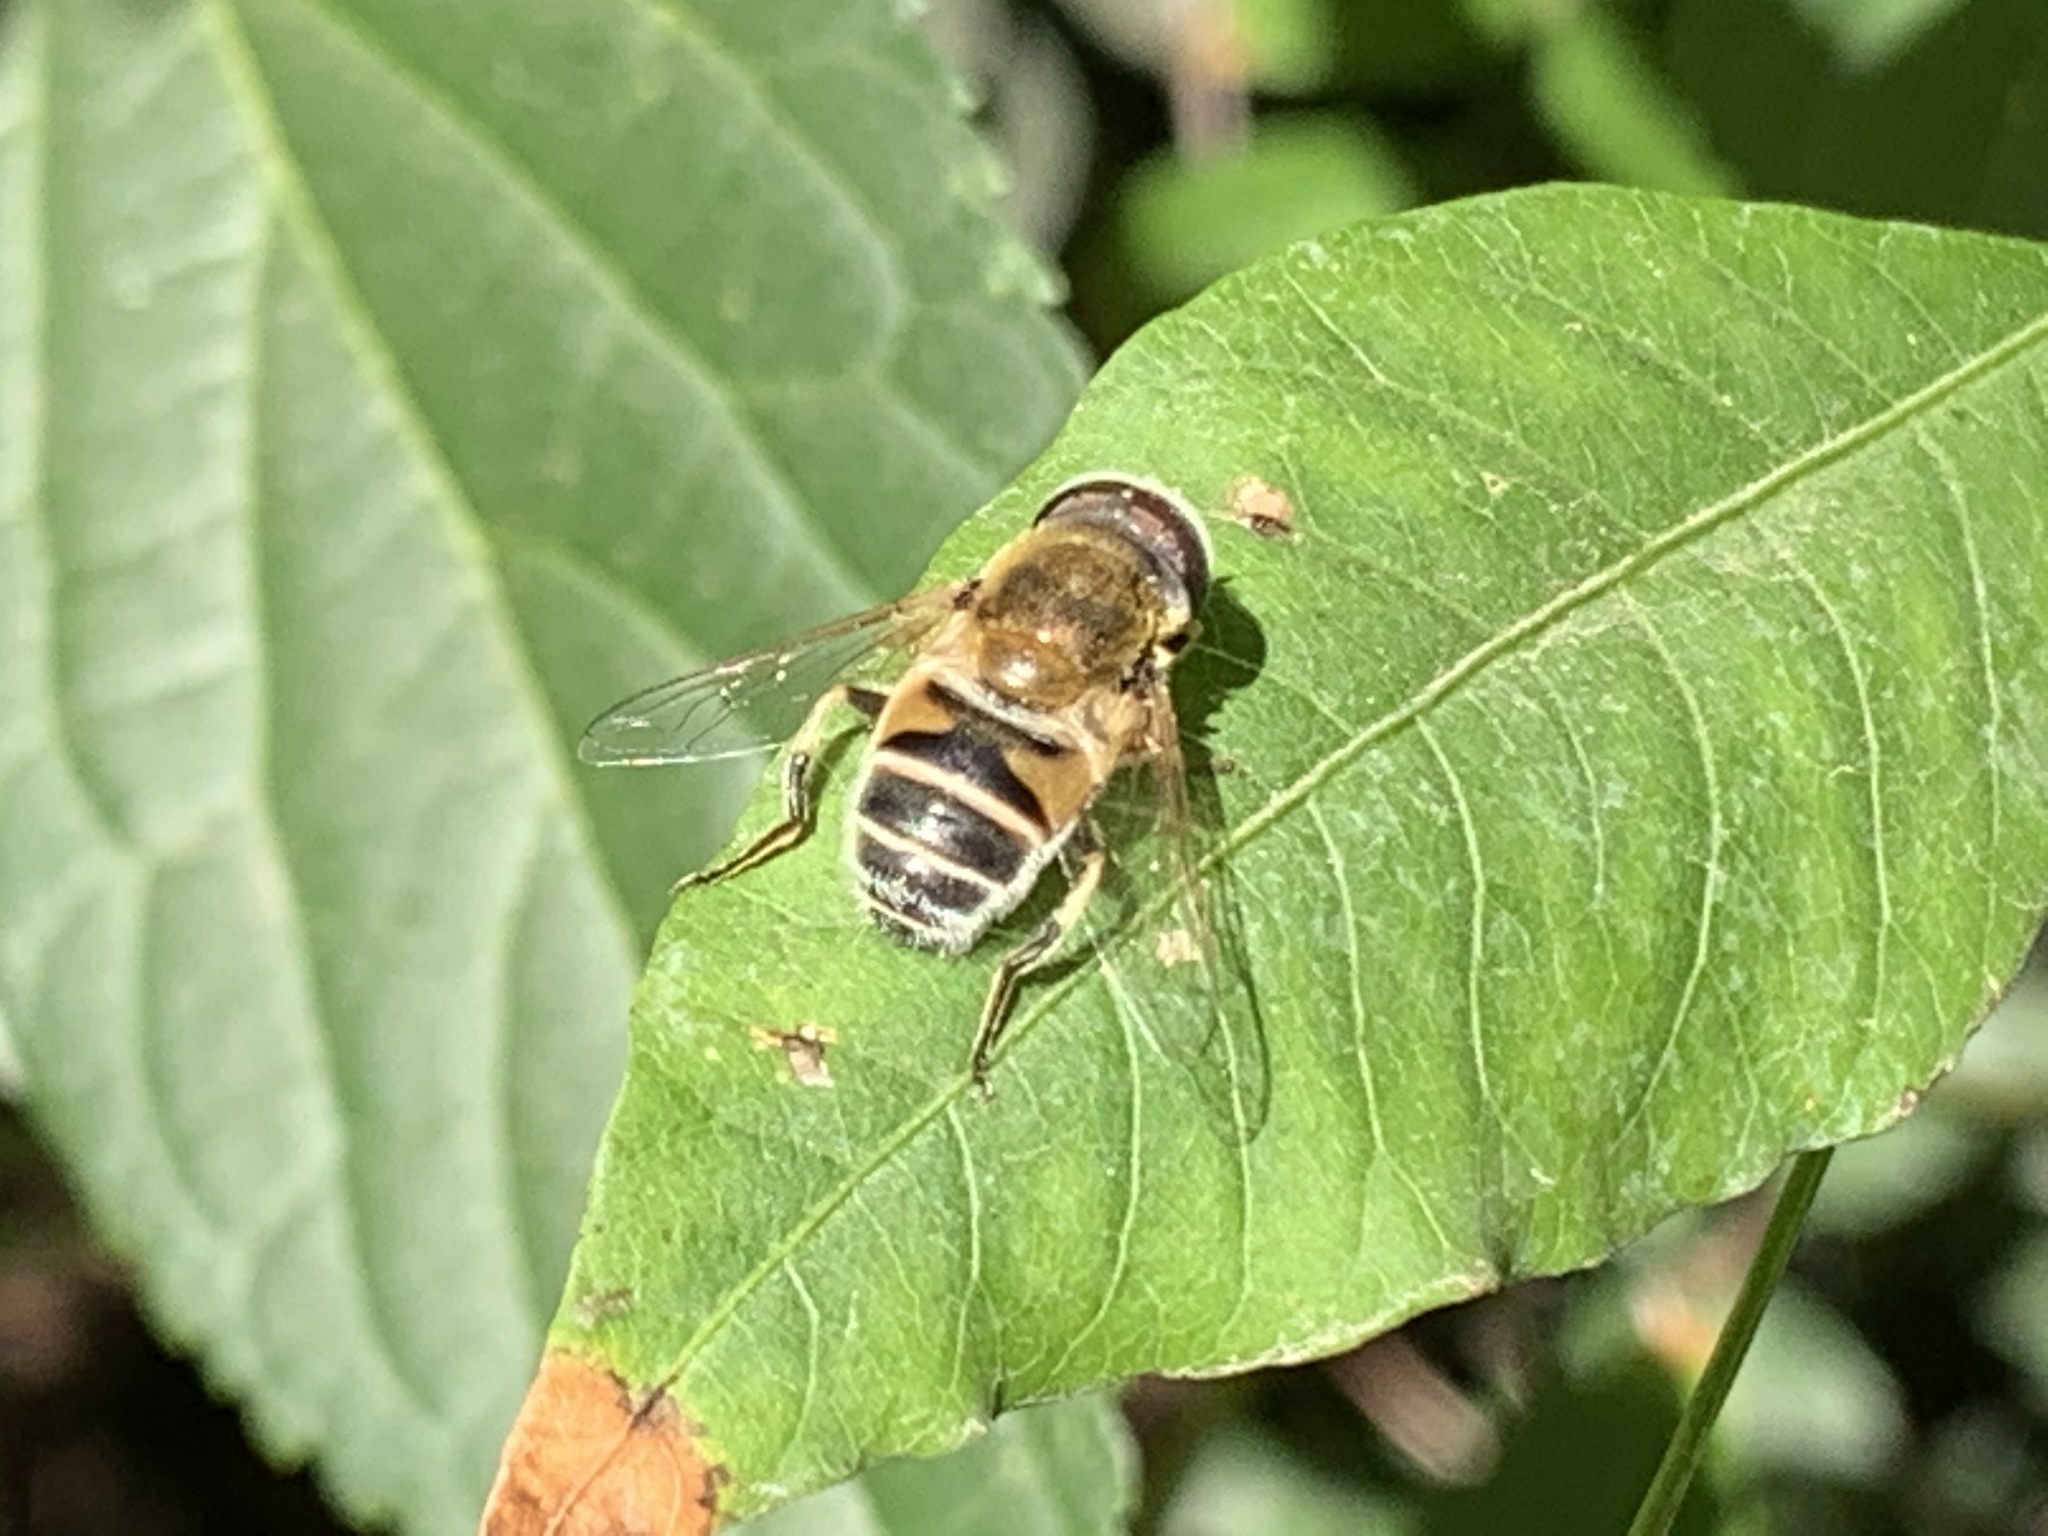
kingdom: Animalia
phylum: Arthropoda
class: Insecta
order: Diptera
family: Syrphidae
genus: Eristalis
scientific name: Eristalis stipator
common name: Yellow-shouldered drone fly
